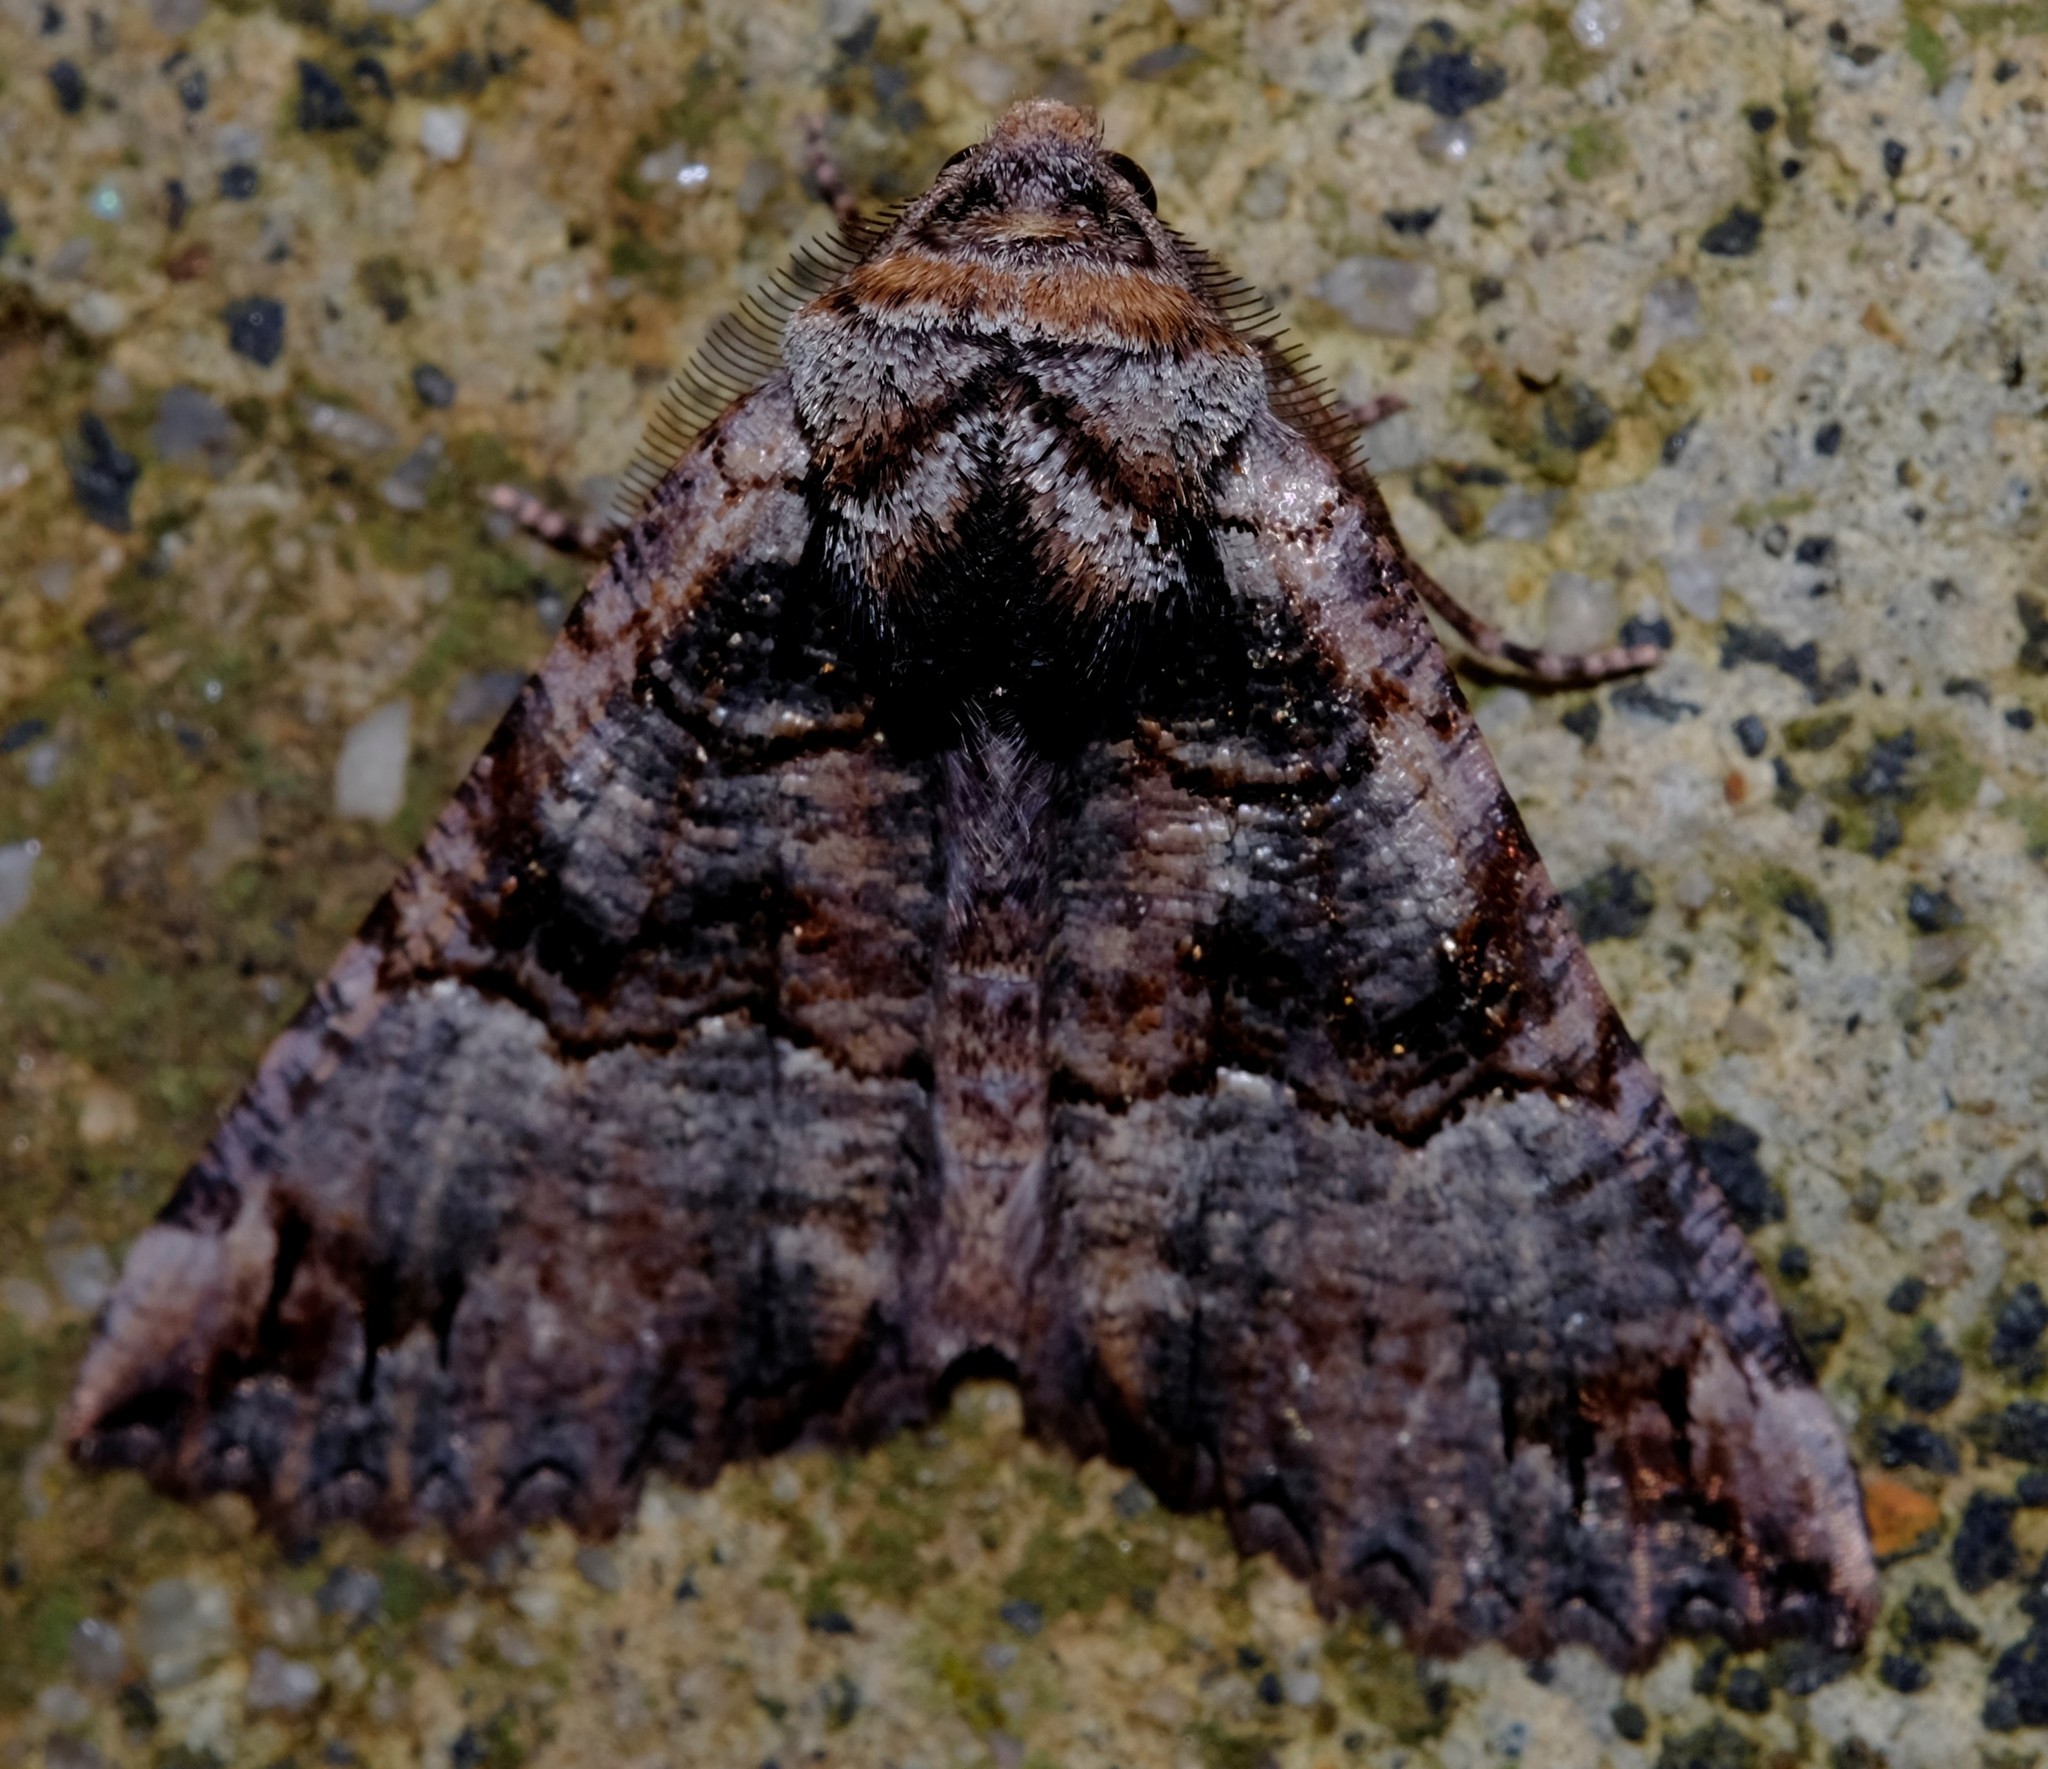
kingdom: Animalia
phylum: Arthropoda
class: Insecta
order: Lepidoptera
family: Geometridae
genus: Nisista
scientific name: Nisista notodontaria
